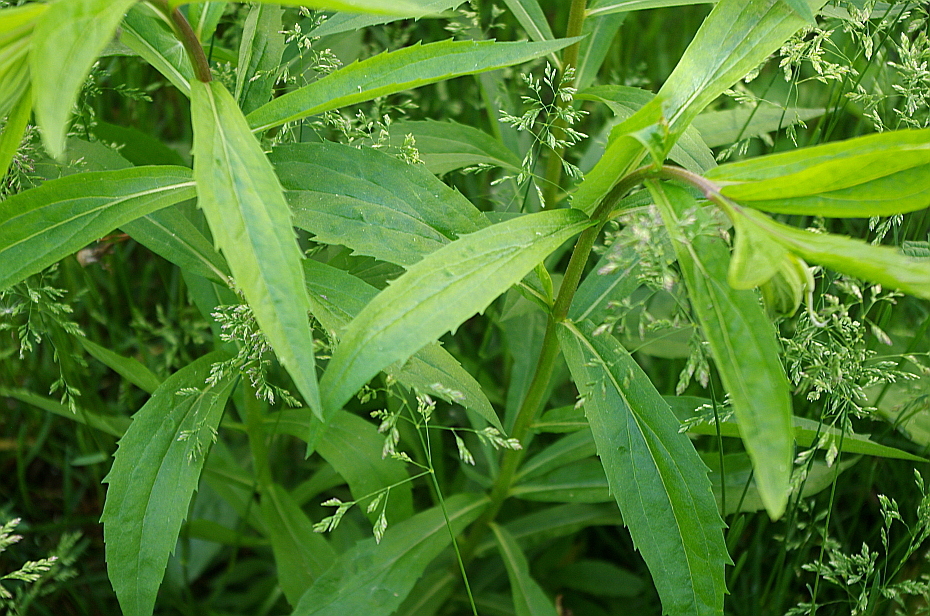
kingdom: Plantae
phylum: Tracheophyta
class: Magnoliopsida
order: Asterales
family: Asteraceae
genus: Solidago
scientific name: Solidago canadensis
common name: Canada goldenrod
